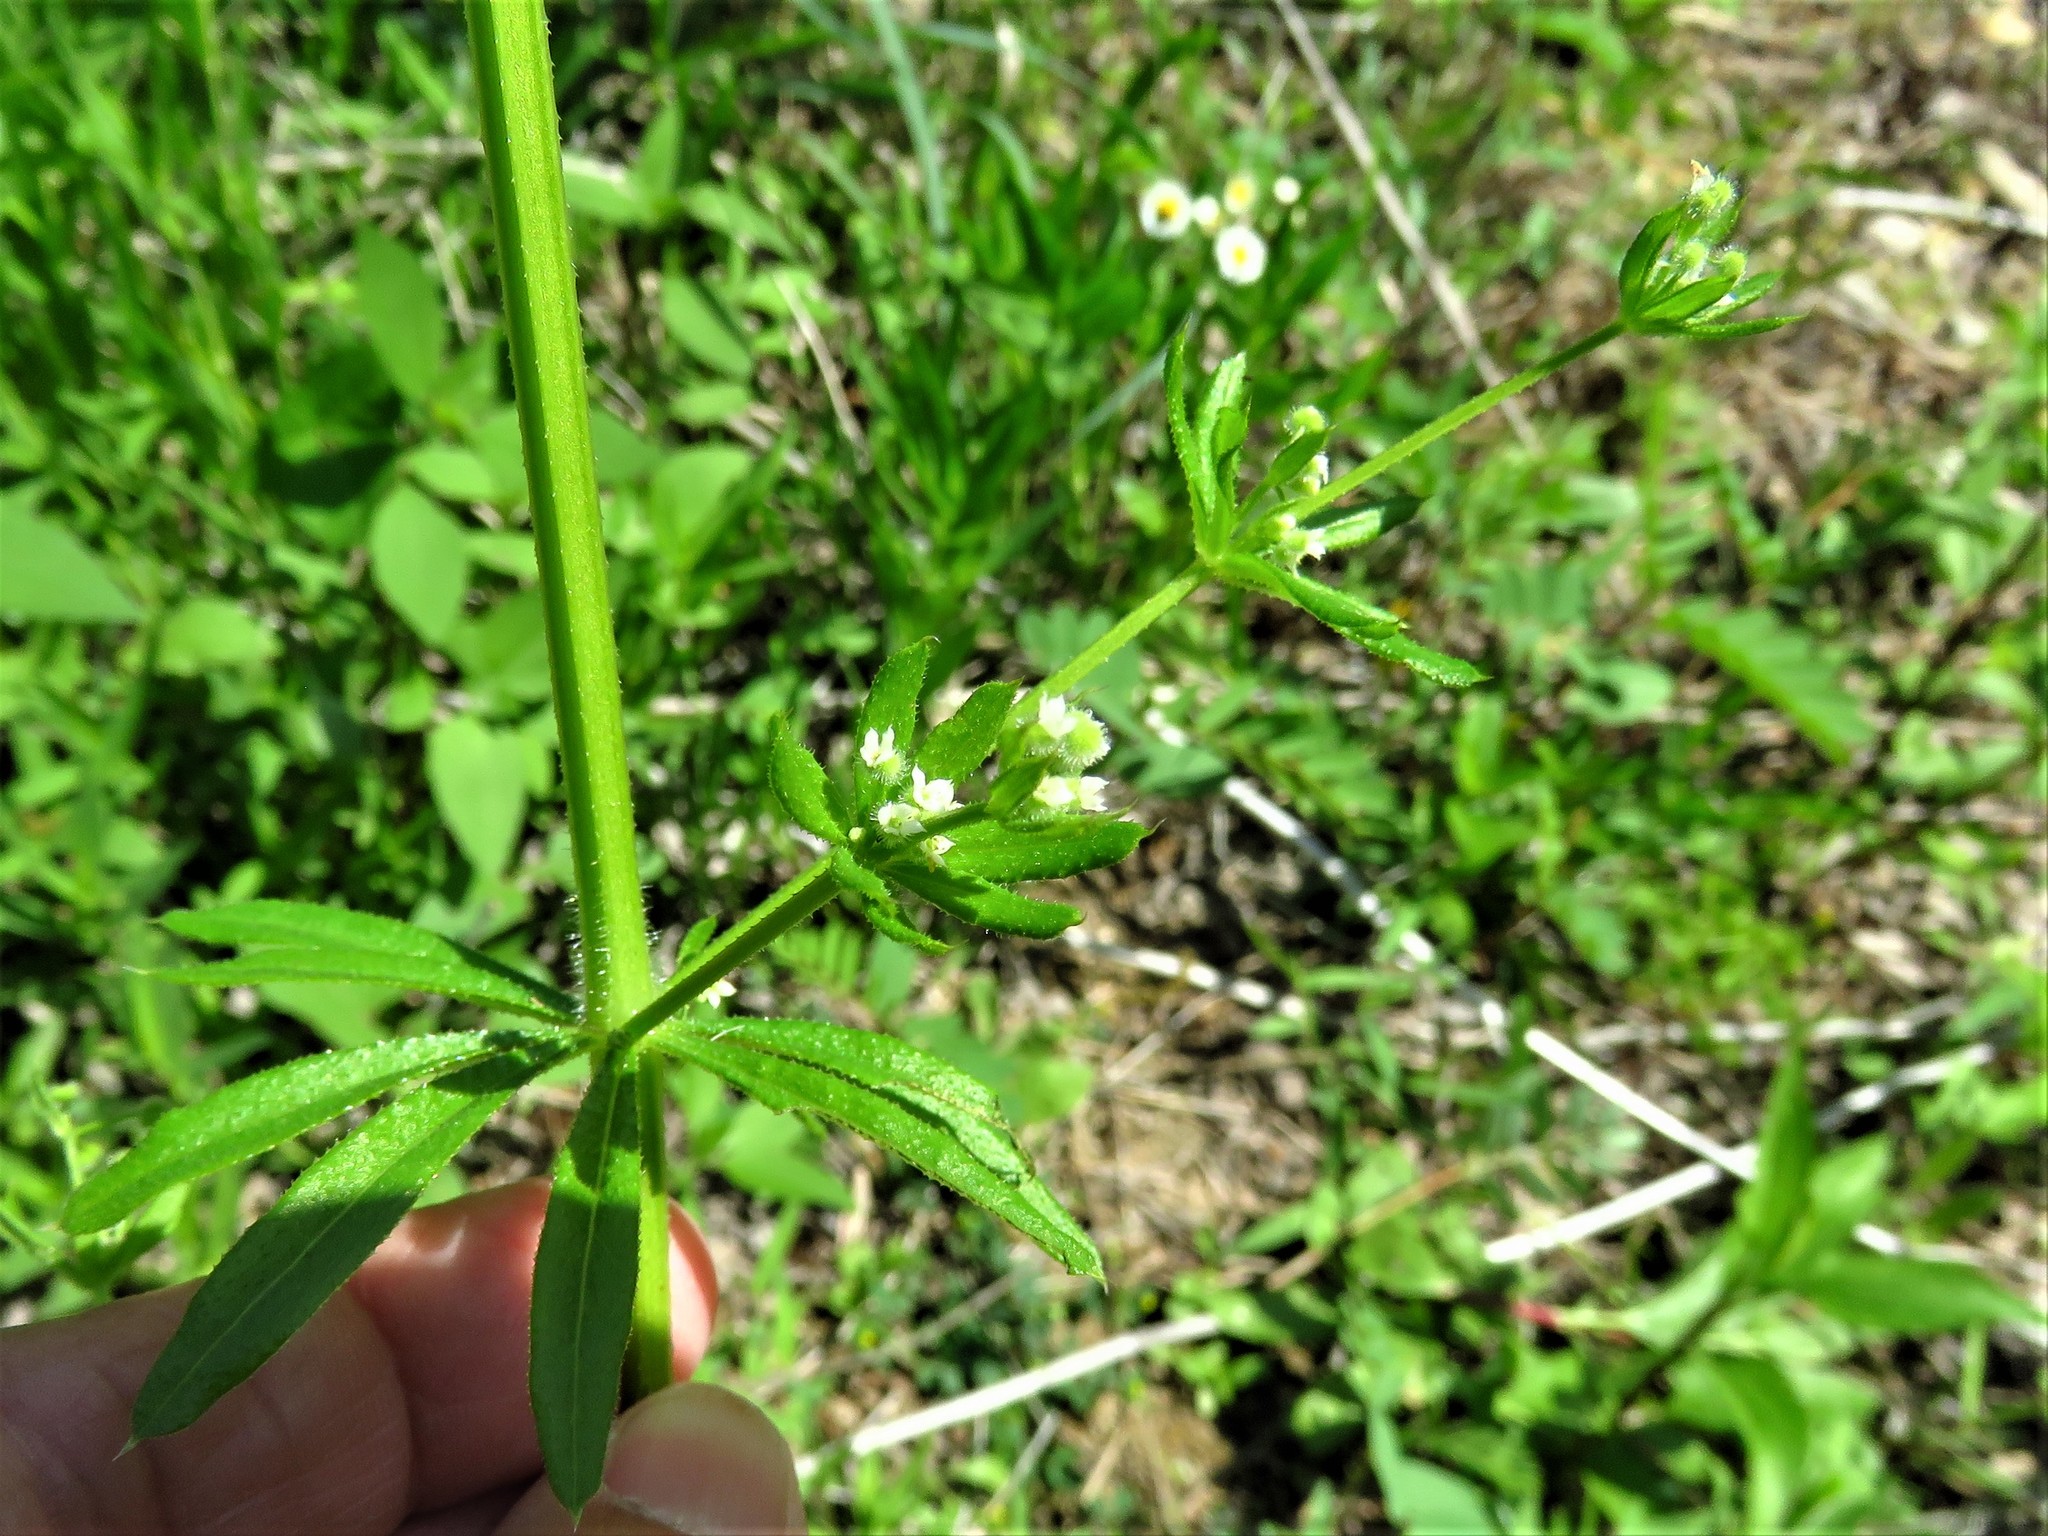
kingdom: Plantae
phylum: Tracheophyta
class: Magnoliopsida
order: Gentianales
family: Rubiaceae
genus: Galium
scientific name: Galium aparine
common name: Cleavers
